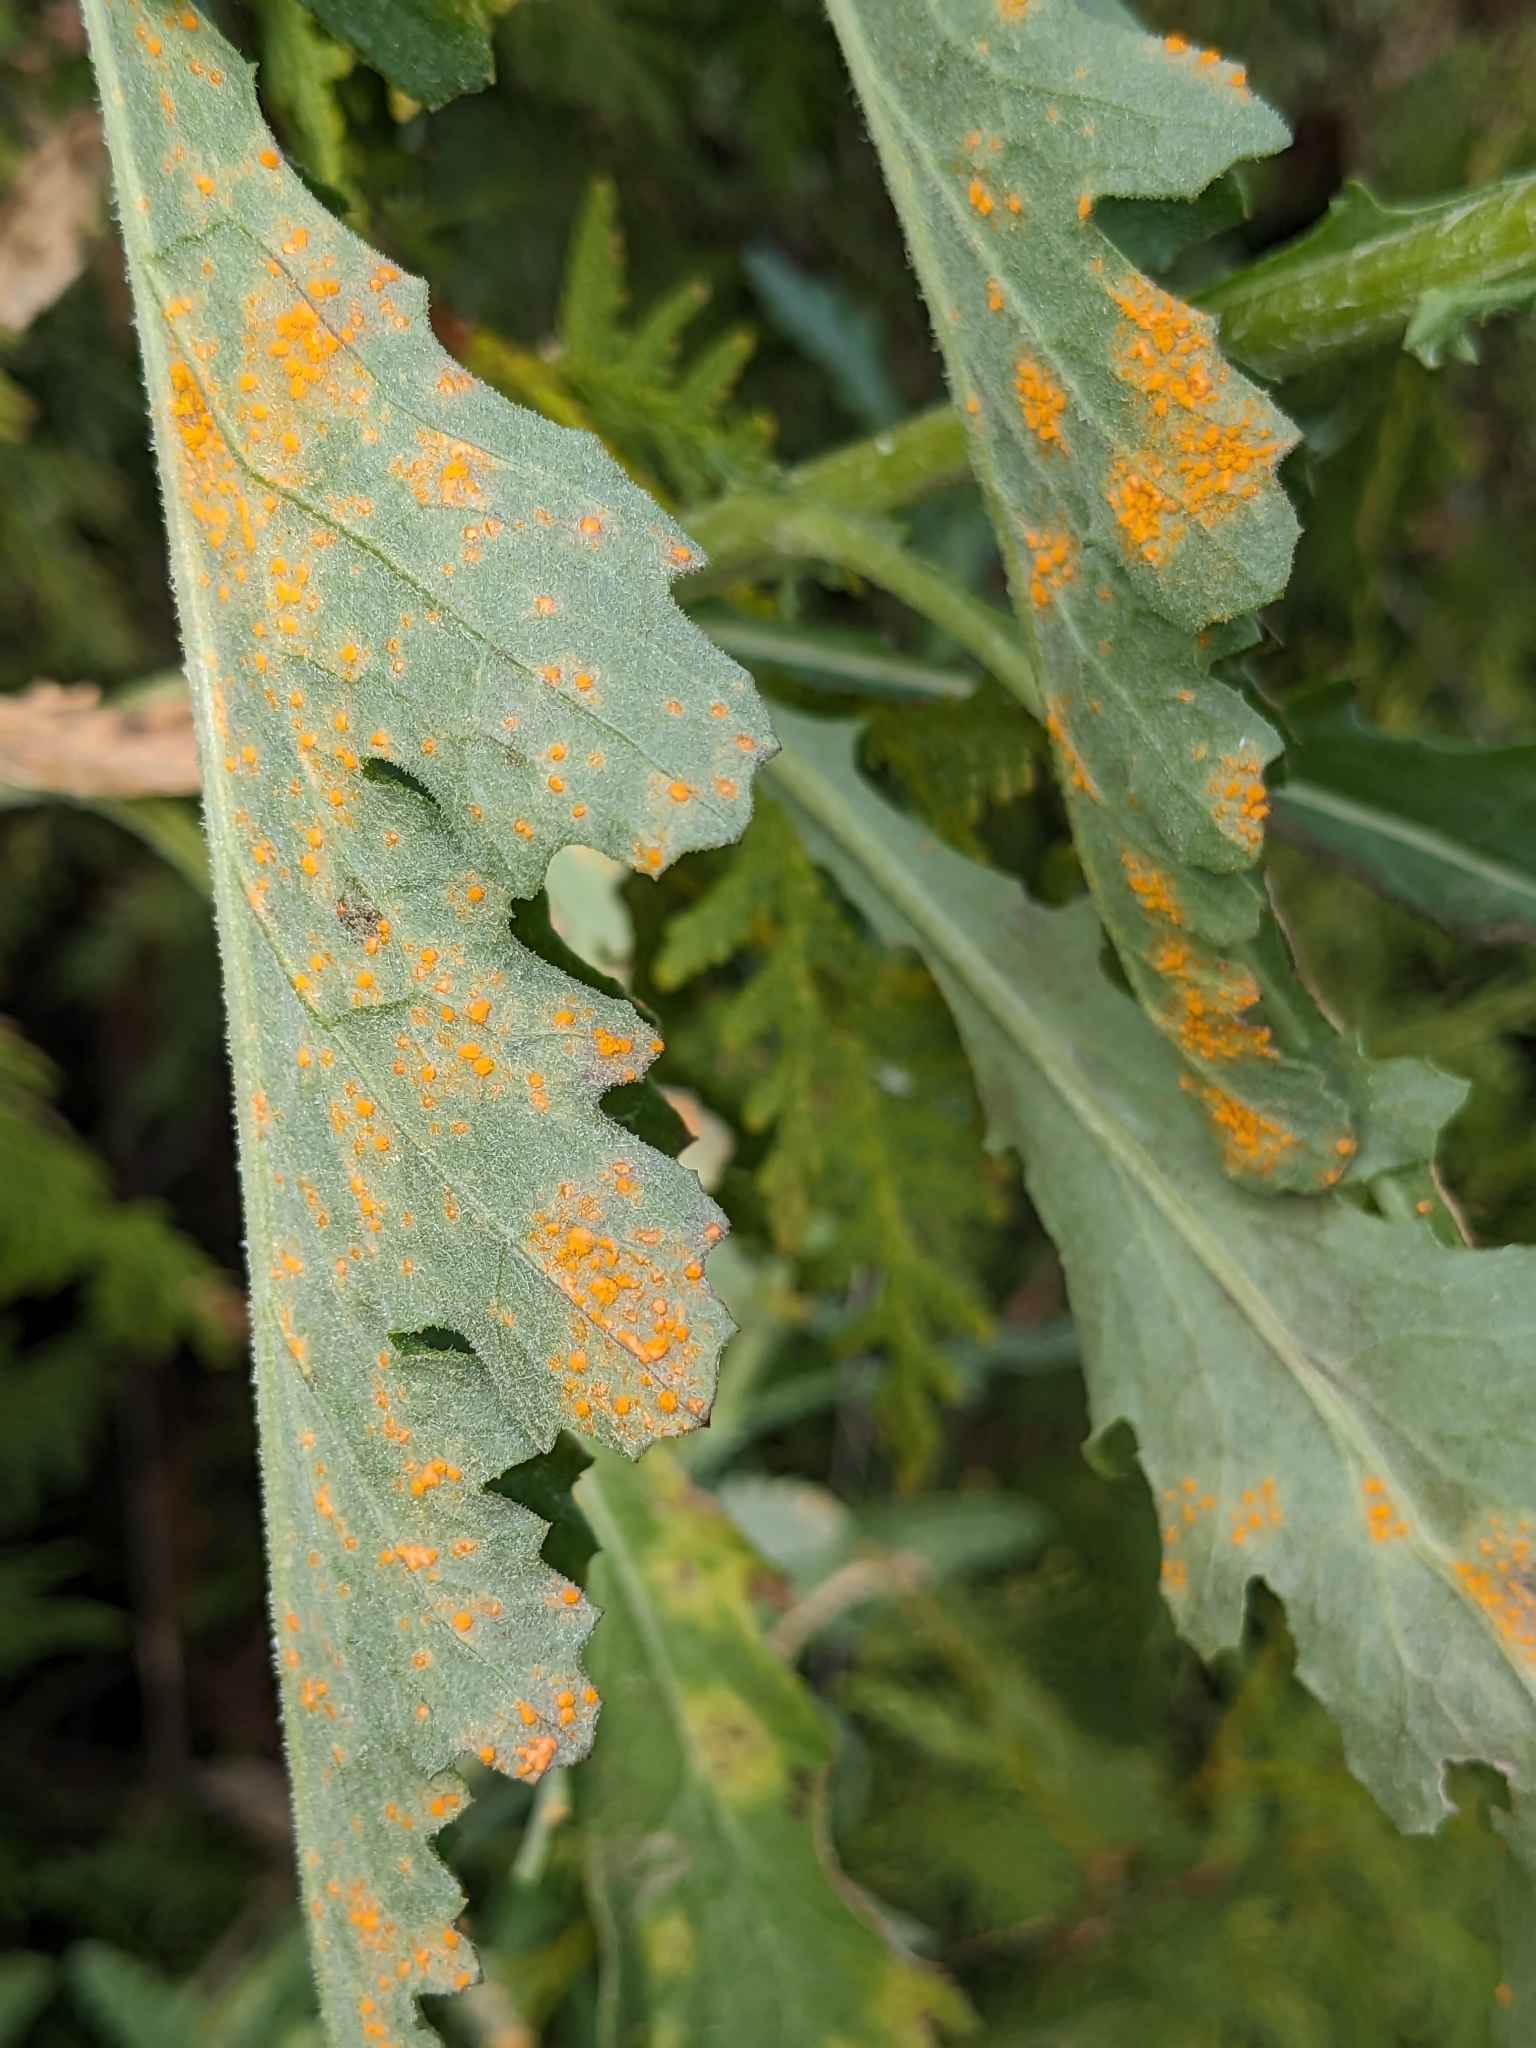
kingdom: Fungi
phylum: Basidiomycota
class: Pucciniomycetes
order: Pucciniales
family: Coleosporiaceae
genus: Coleosporium
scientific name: Coleosporium tussilaginis
